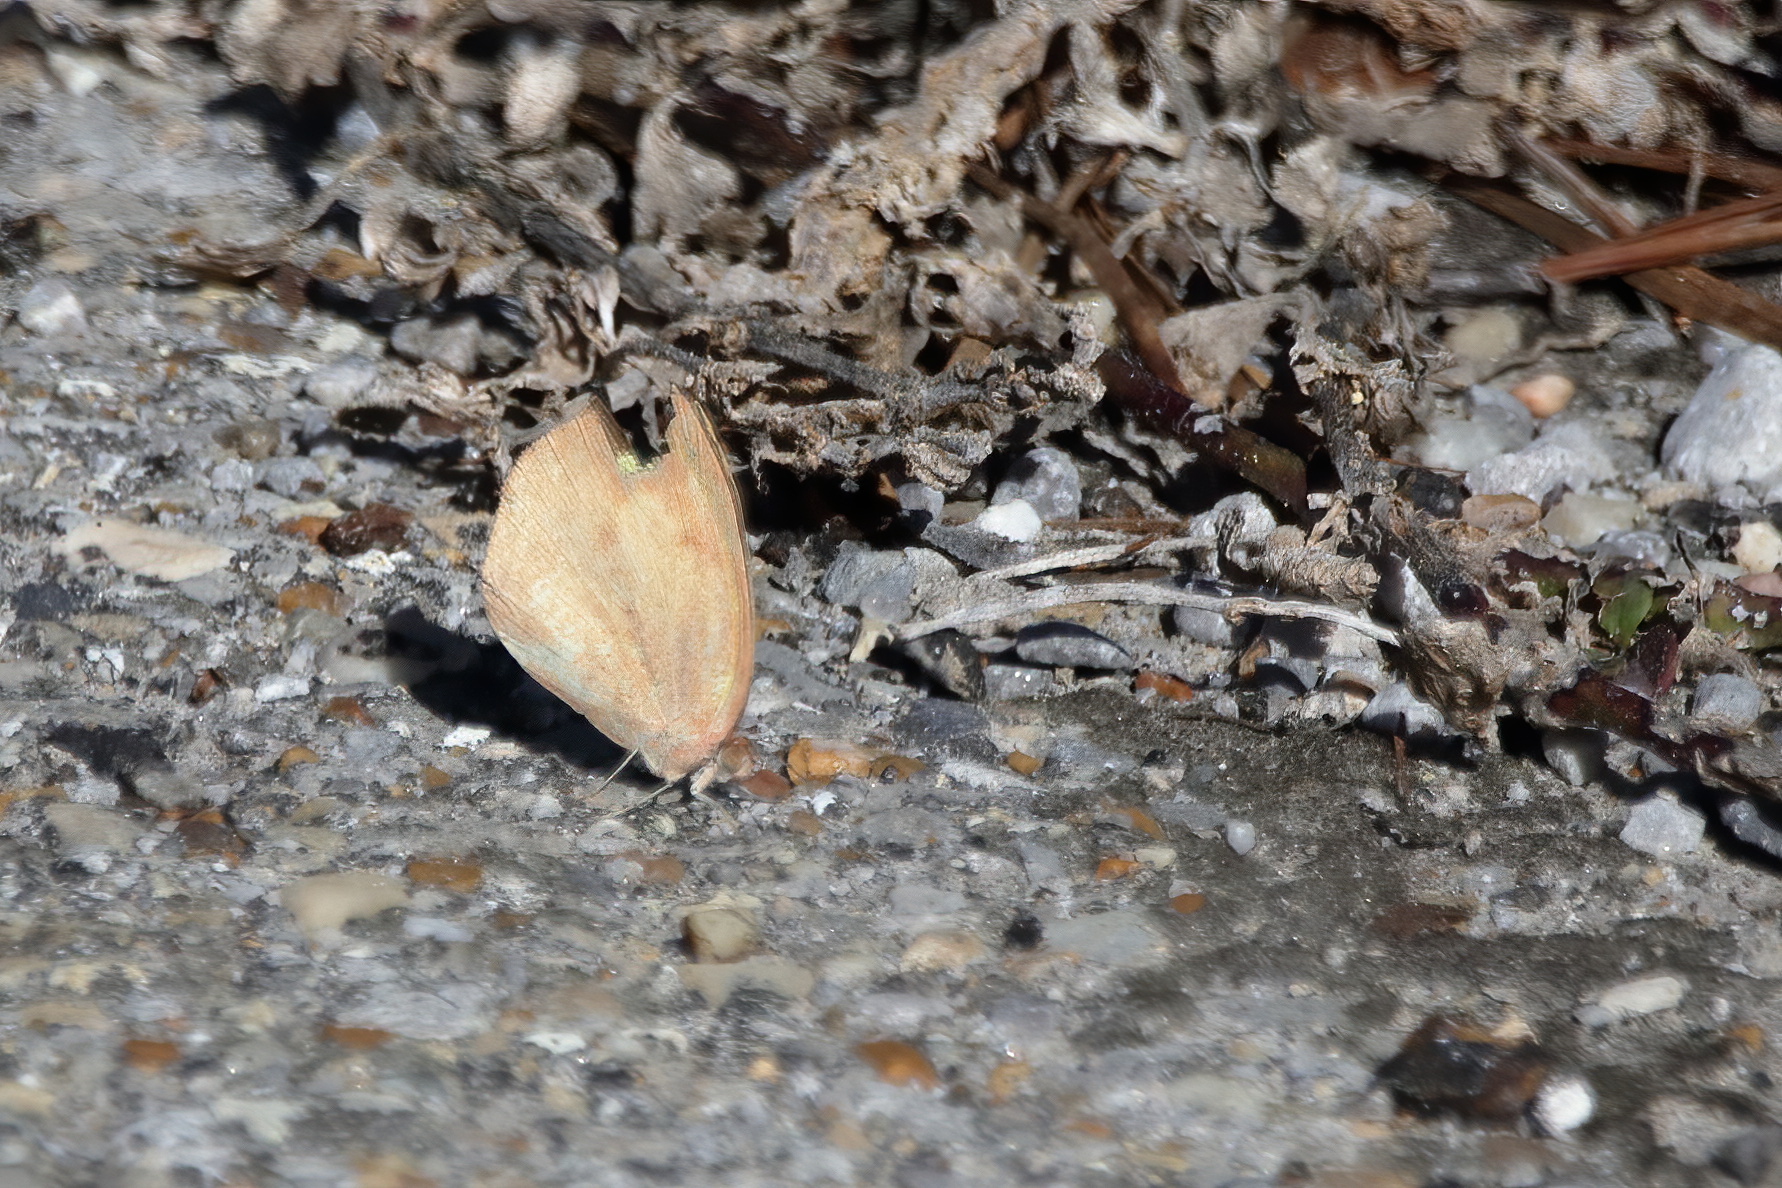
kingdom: Animalia
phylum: Arthropoda
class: Insecta
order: Lepidoptera
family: Pieridae
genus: Eurema
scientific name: Eurema daira
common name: Barred sulphur
